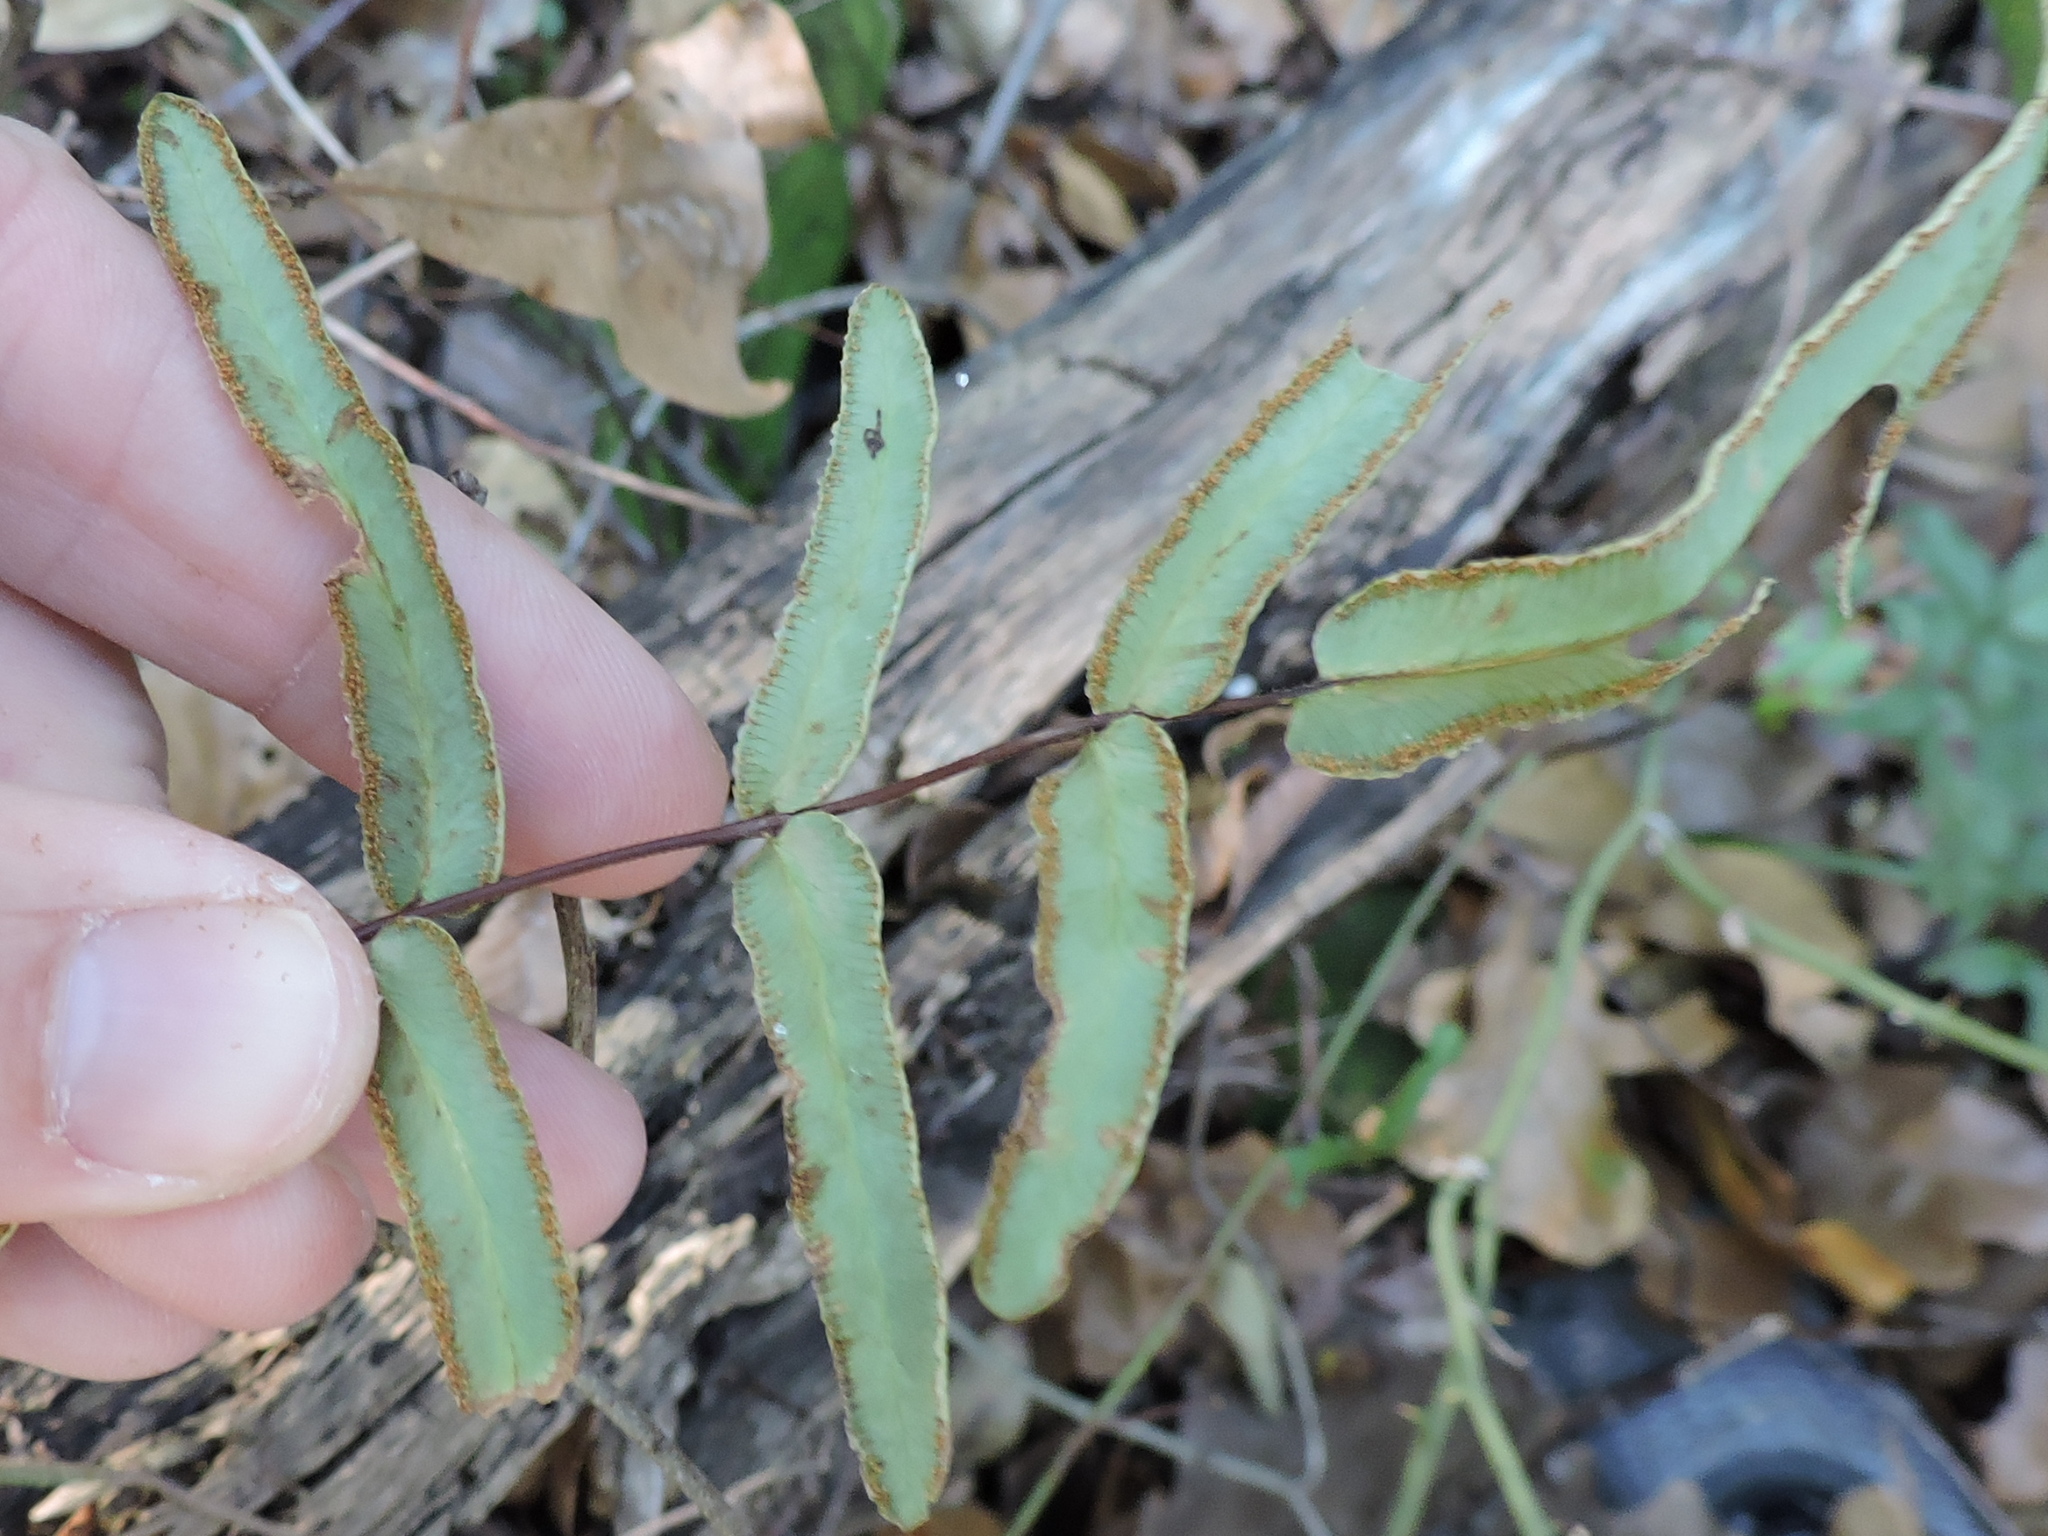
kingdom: Plantae
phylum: Tracheophyta
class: Polypodiopsida
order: Polypodiales
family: Pteridaceae
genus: Pellaea
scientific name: Pellaea atropurpurea
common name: Hairy cliffbrake
